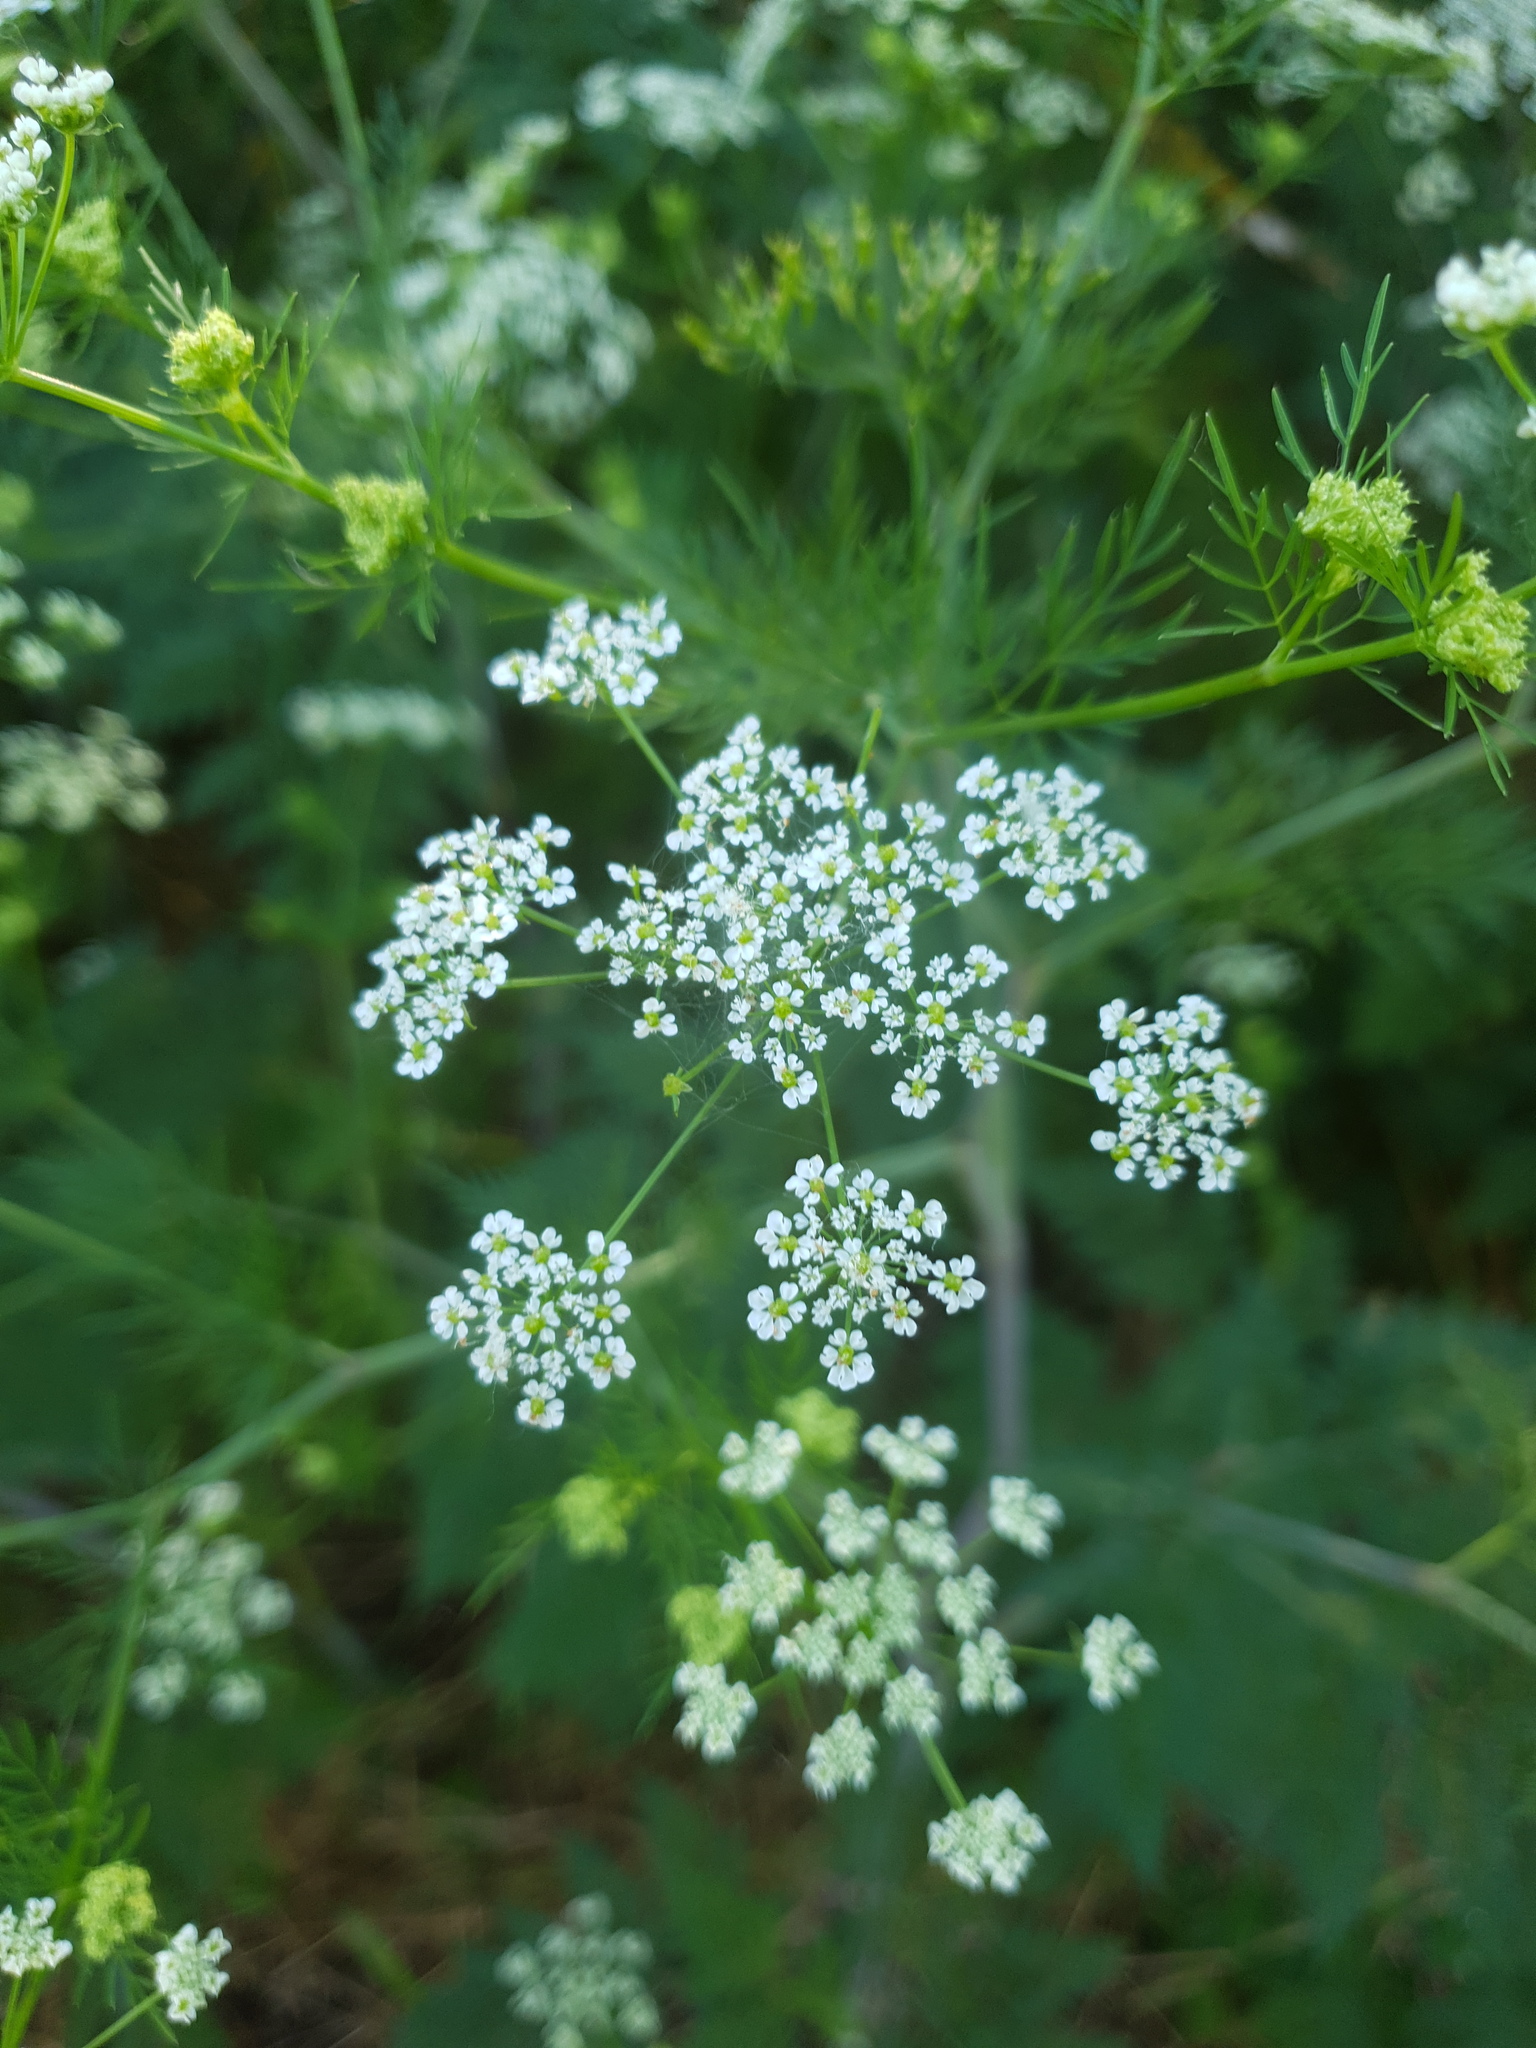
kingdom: Plantae
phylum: Tracheophyta
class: Magnoliopsida
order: Apiales
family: Apiaceae
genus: Chaerophyllum
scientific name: Chaerophyllum bulbosum
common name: Bulbous chervil
